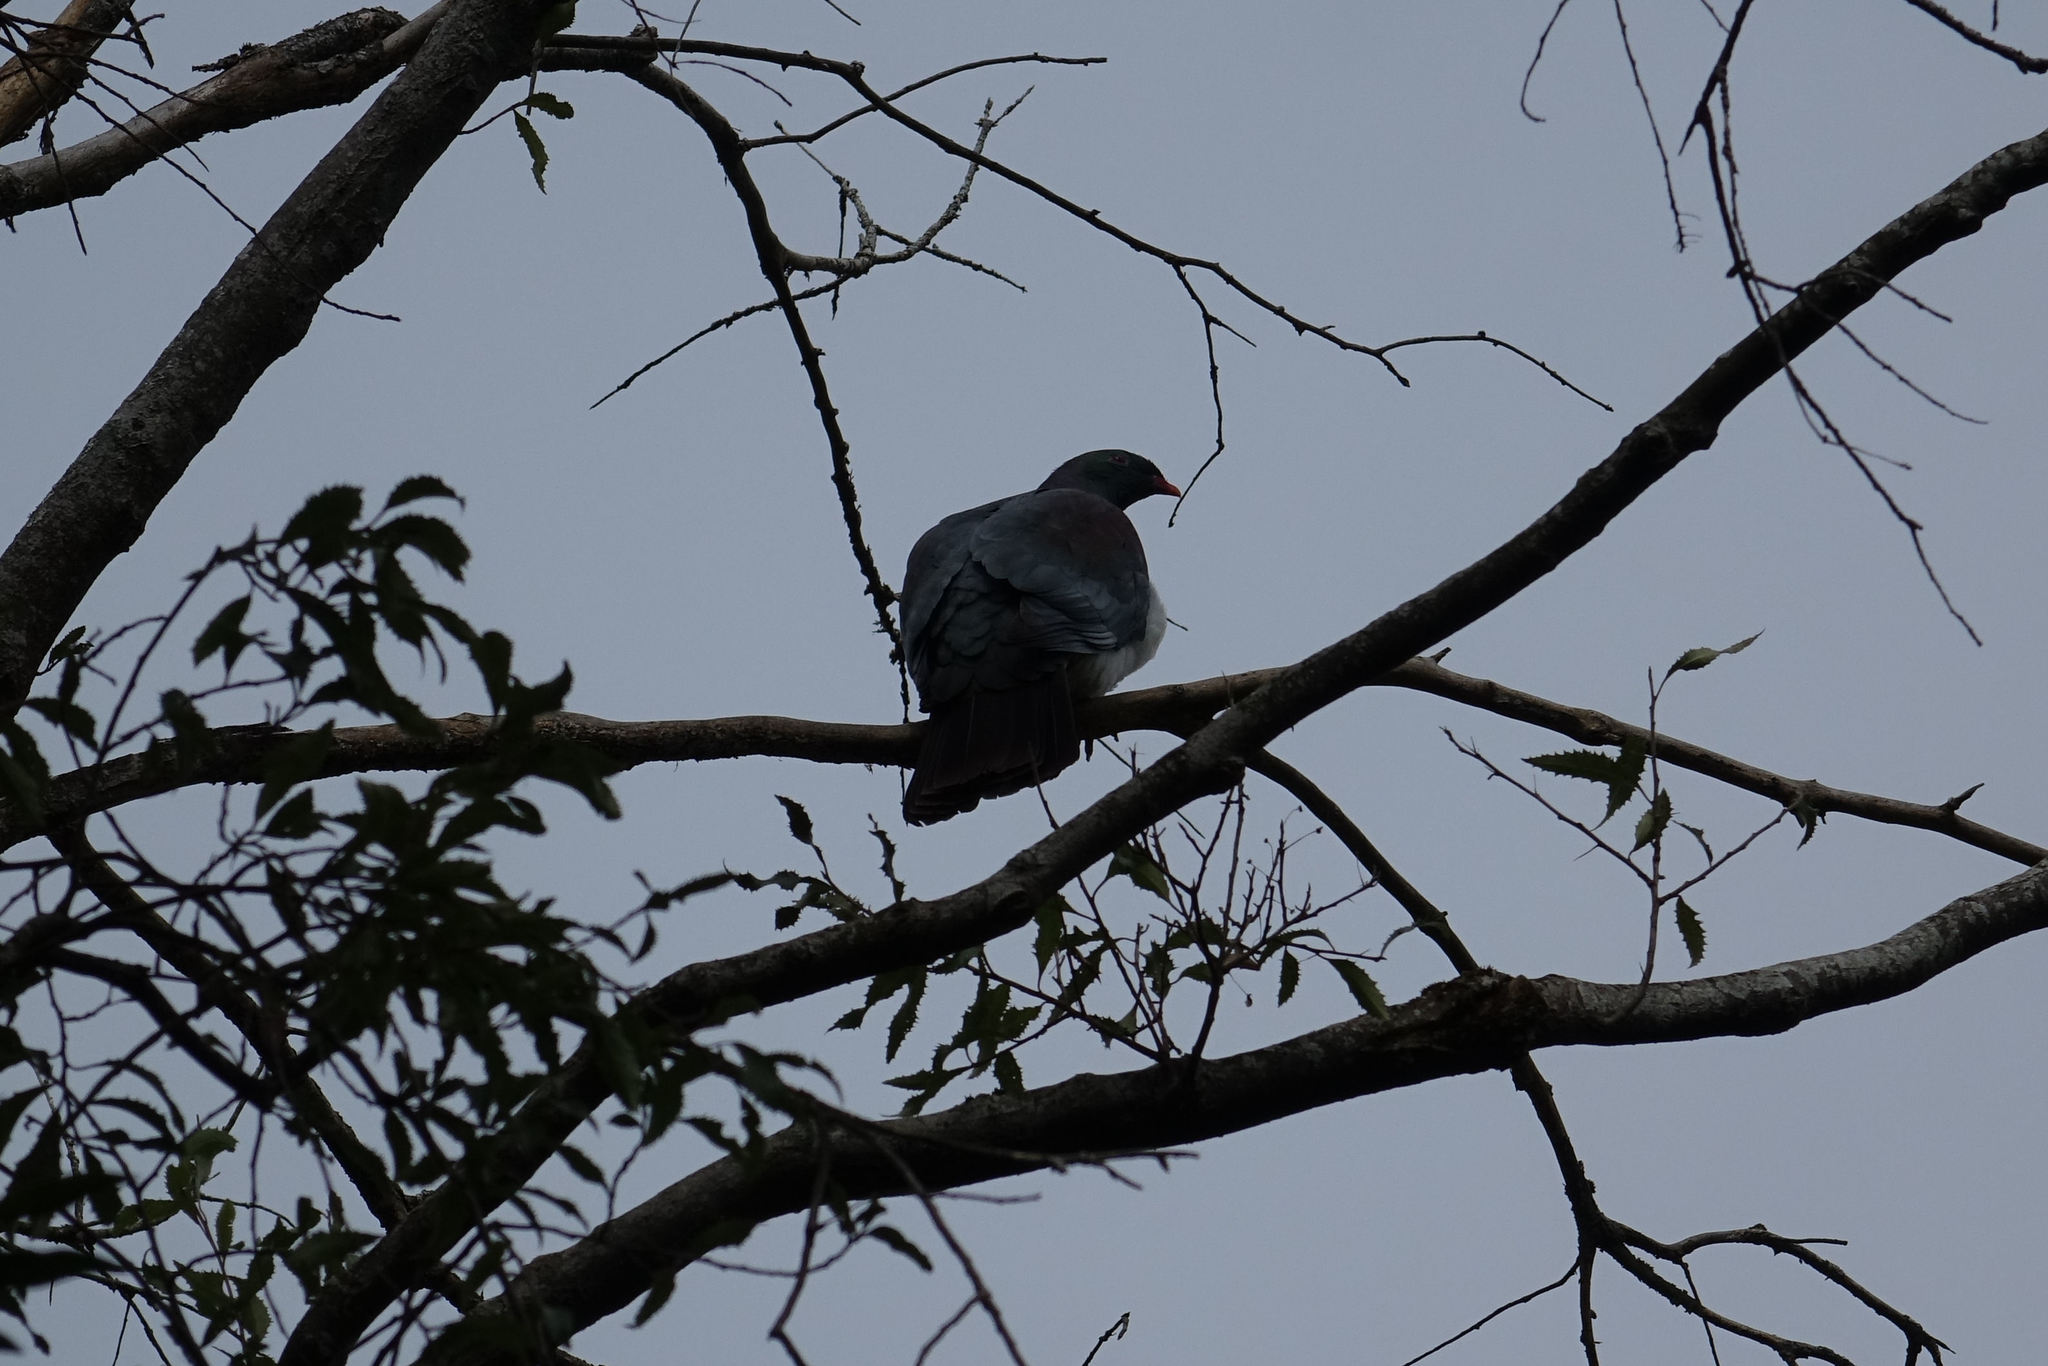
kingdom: Animalia
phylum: Chordata
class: Aves
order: Columbiformes
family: Columbidae
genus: Hemiphaga
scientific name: Hemiphaga novaeseelandiae
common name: New zealand pigeon
